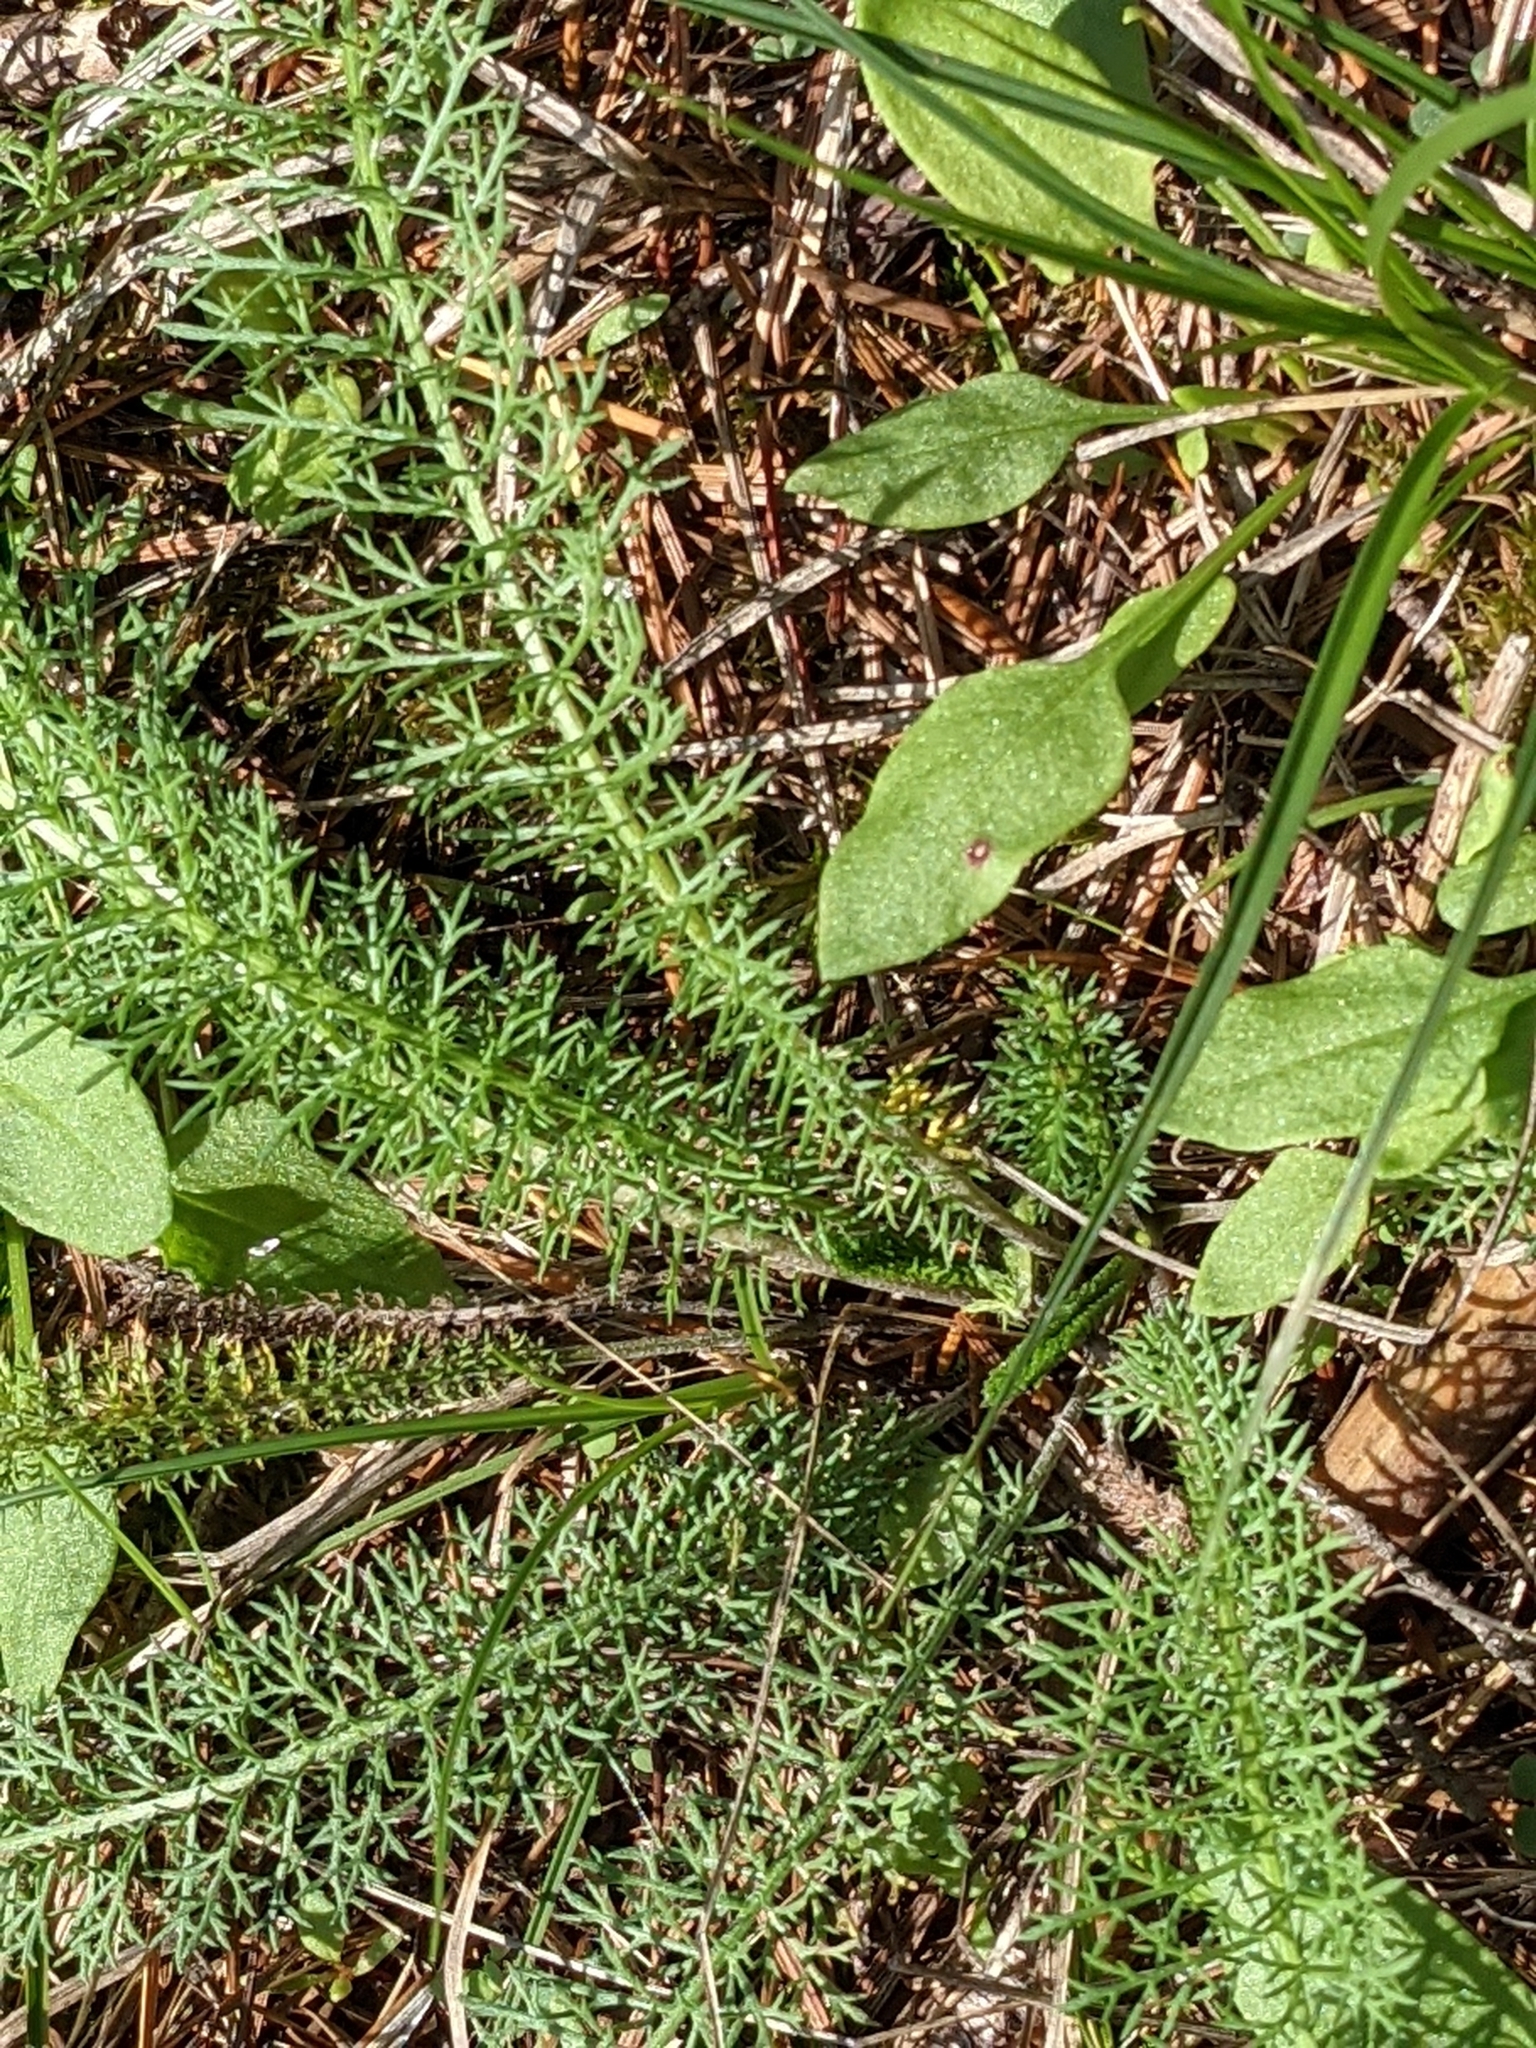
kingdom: Plantae
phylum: Tracheophyta
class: Magnoliopsida
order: Asterales
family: Asteraceae
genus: Achillea
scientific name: Achillea millefolium
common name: Yarrow
